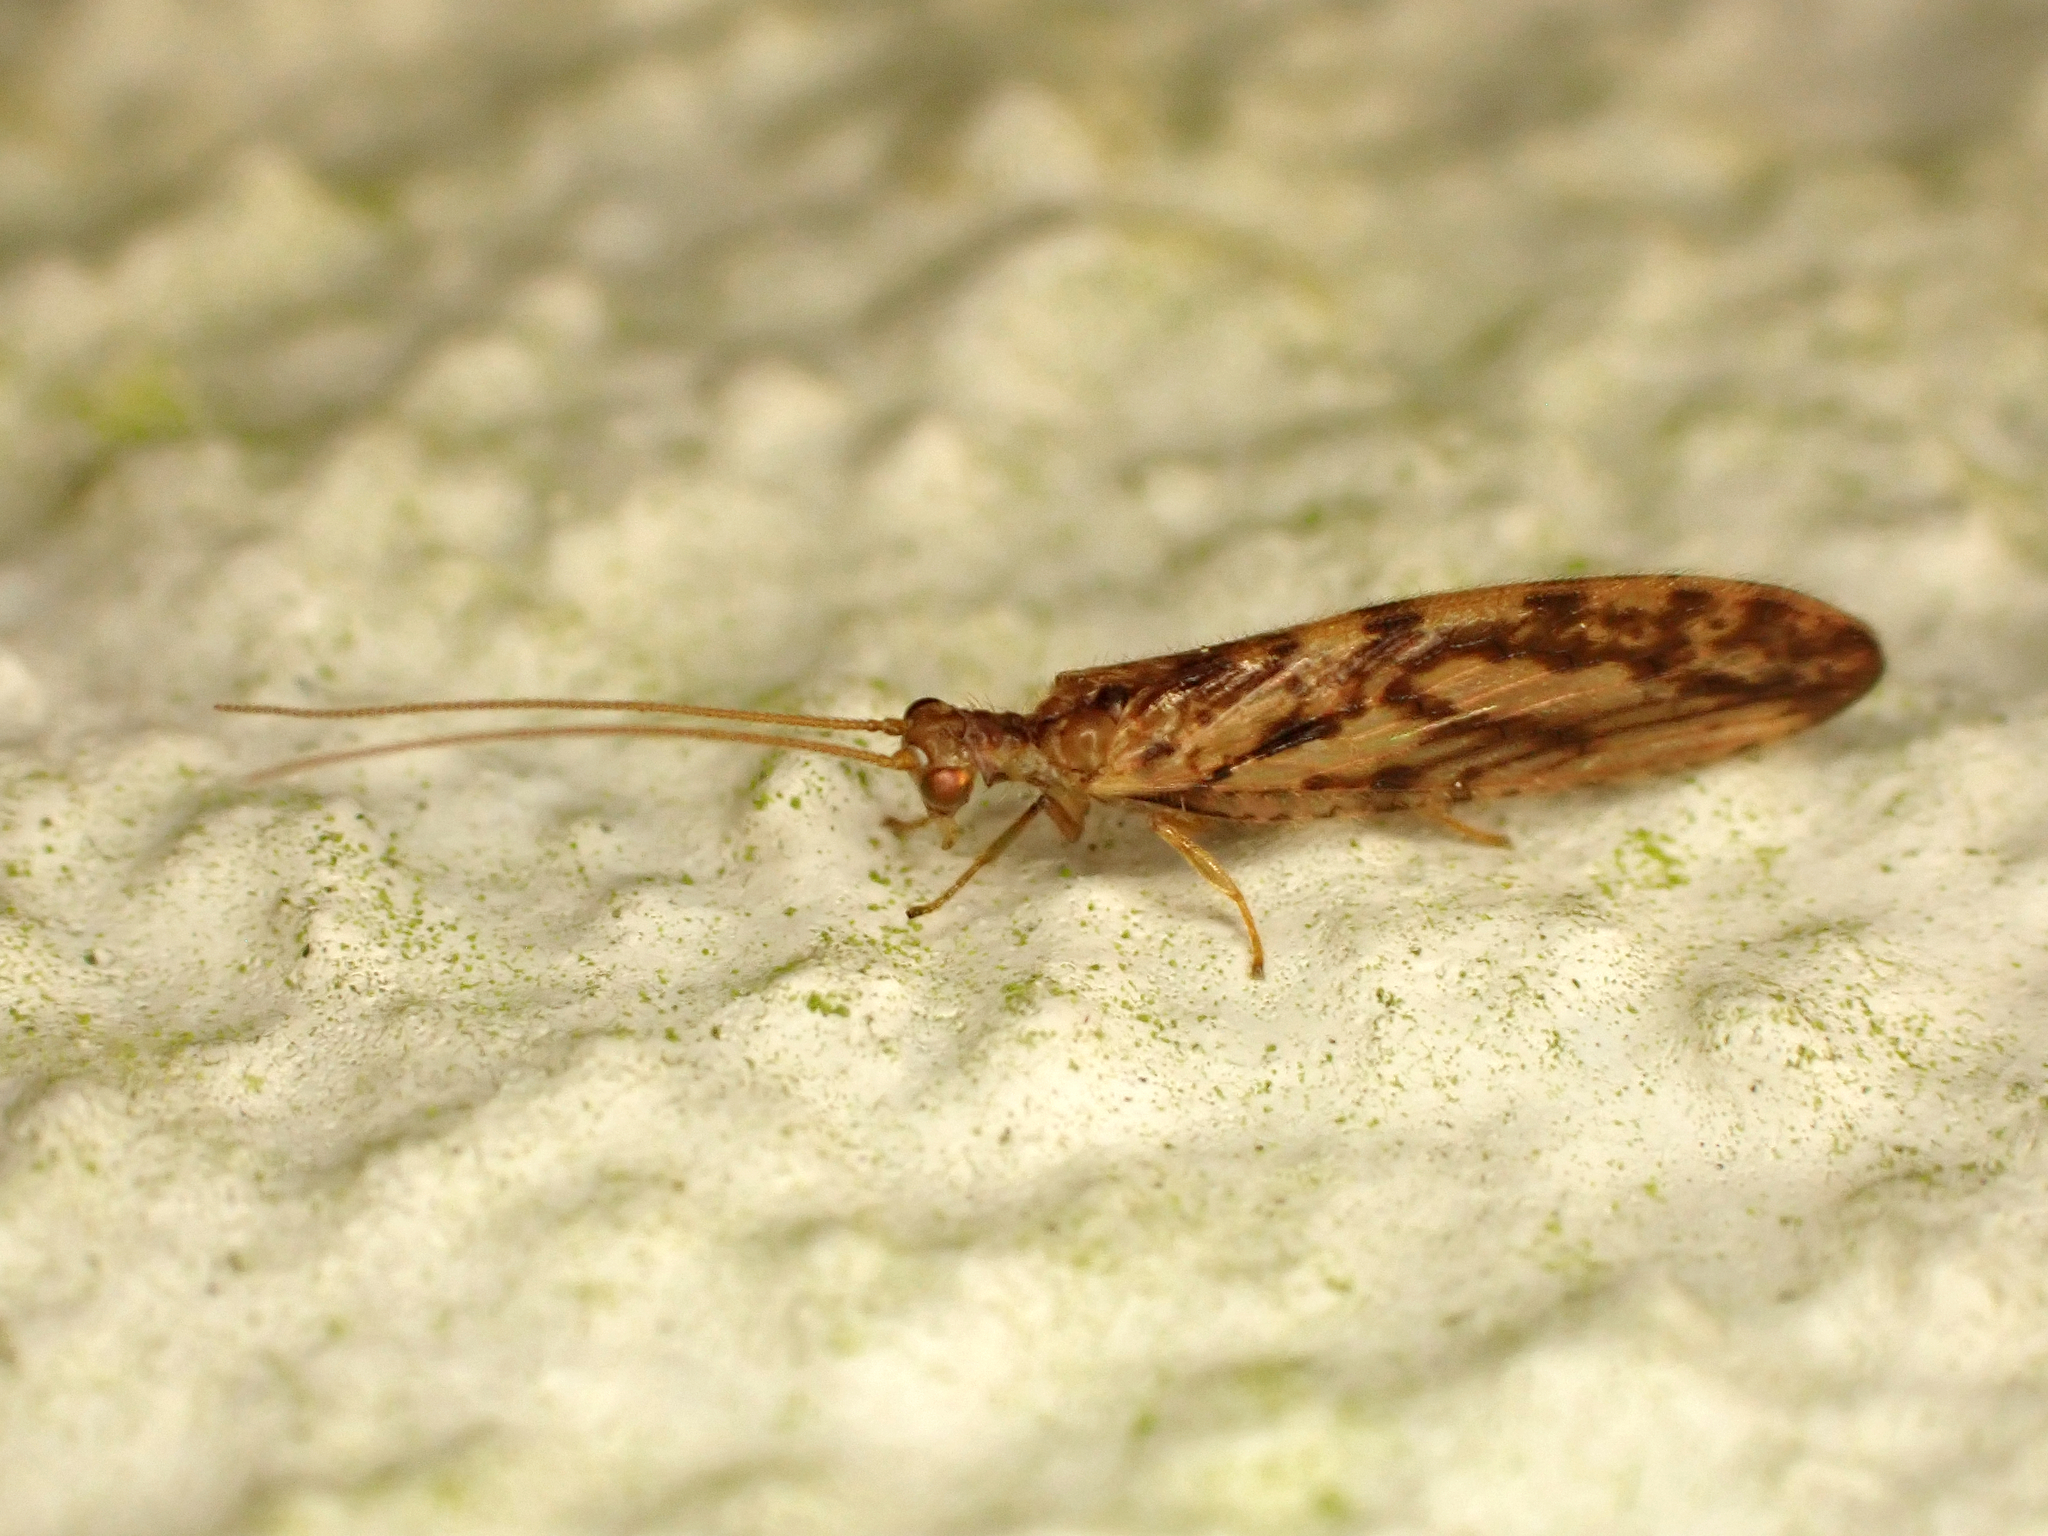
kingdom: Animalia
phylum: Arthropoda
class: Insecta
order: Neuroptera
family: Hemerobiidae
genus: Micromus
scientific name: Micromus bifasciatus
